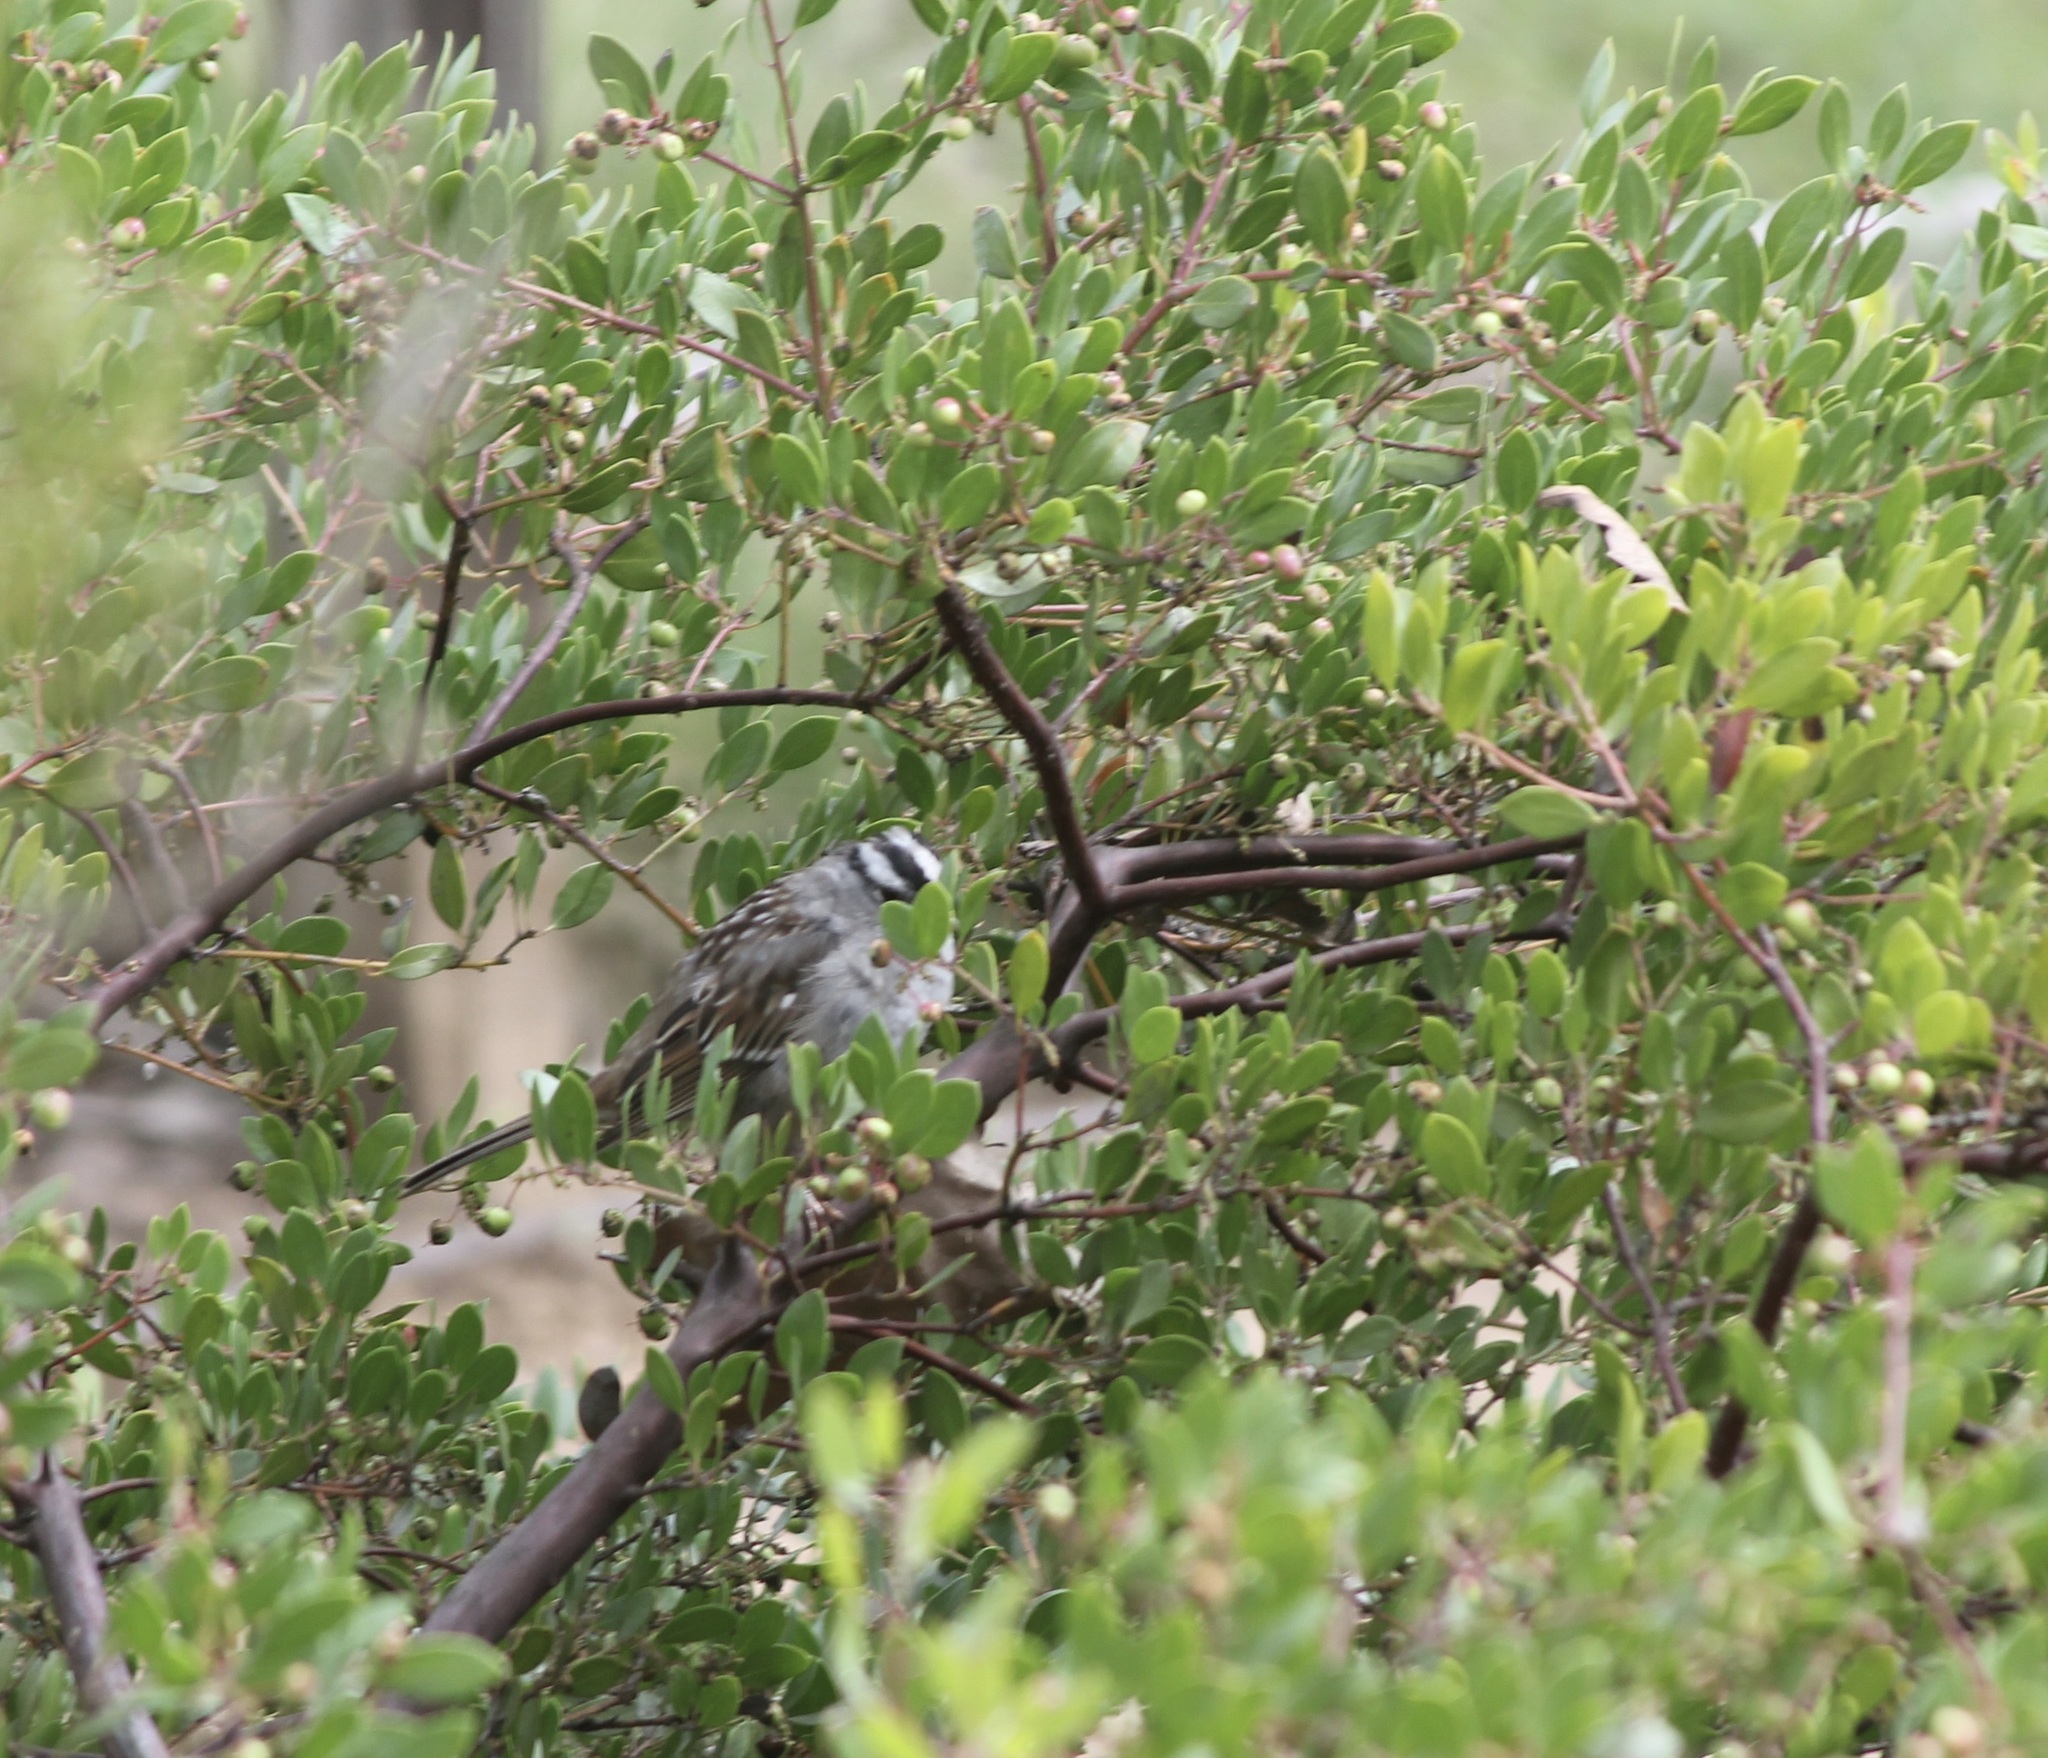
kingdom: Animalia
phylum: Chordata
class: Aves
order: Passeriformes
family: Passerellidae
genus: Zonotrichia
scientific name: Zonotrichia leucophrys
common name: White-crowned sparrow
